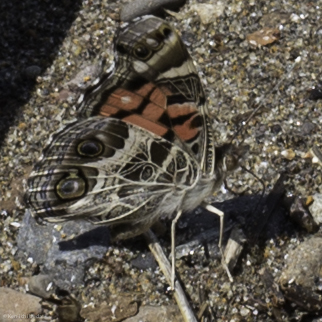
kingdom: Animalia
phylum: Arthropoda
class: Insecta
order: Lepidoptera
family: Nymphalidae
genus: Vanessa
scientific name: Vanessa virginiensis
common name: American lady
